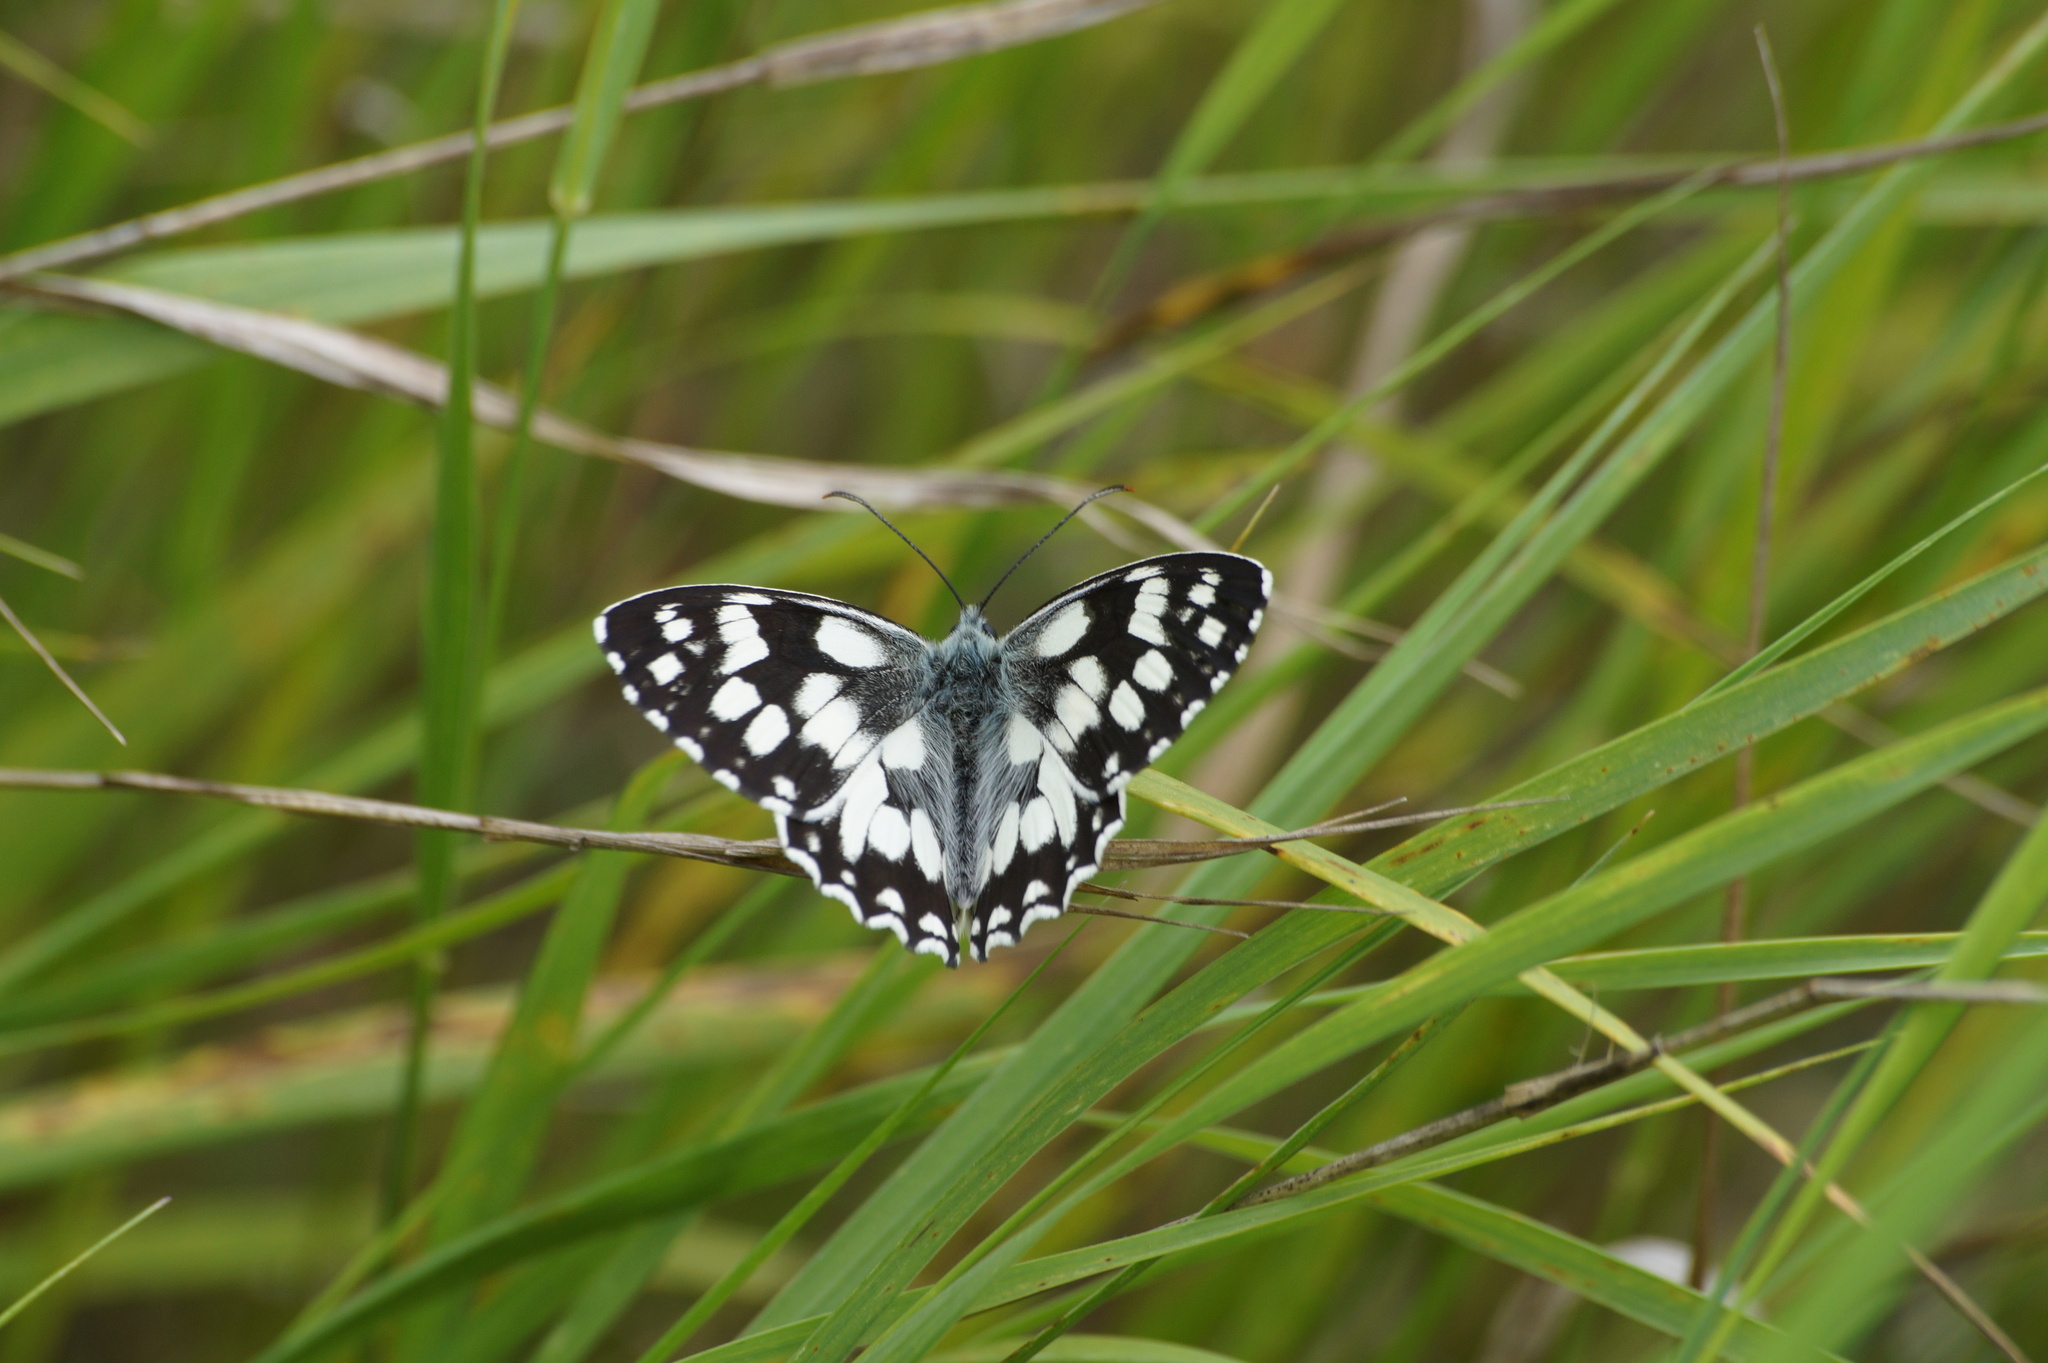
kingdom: Animalia
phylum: Arthropoda
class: Insecta
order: Lepidoptera
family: Nymphalidae
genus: Melanargia
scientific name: Melanargia galathea
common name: Marbled white
